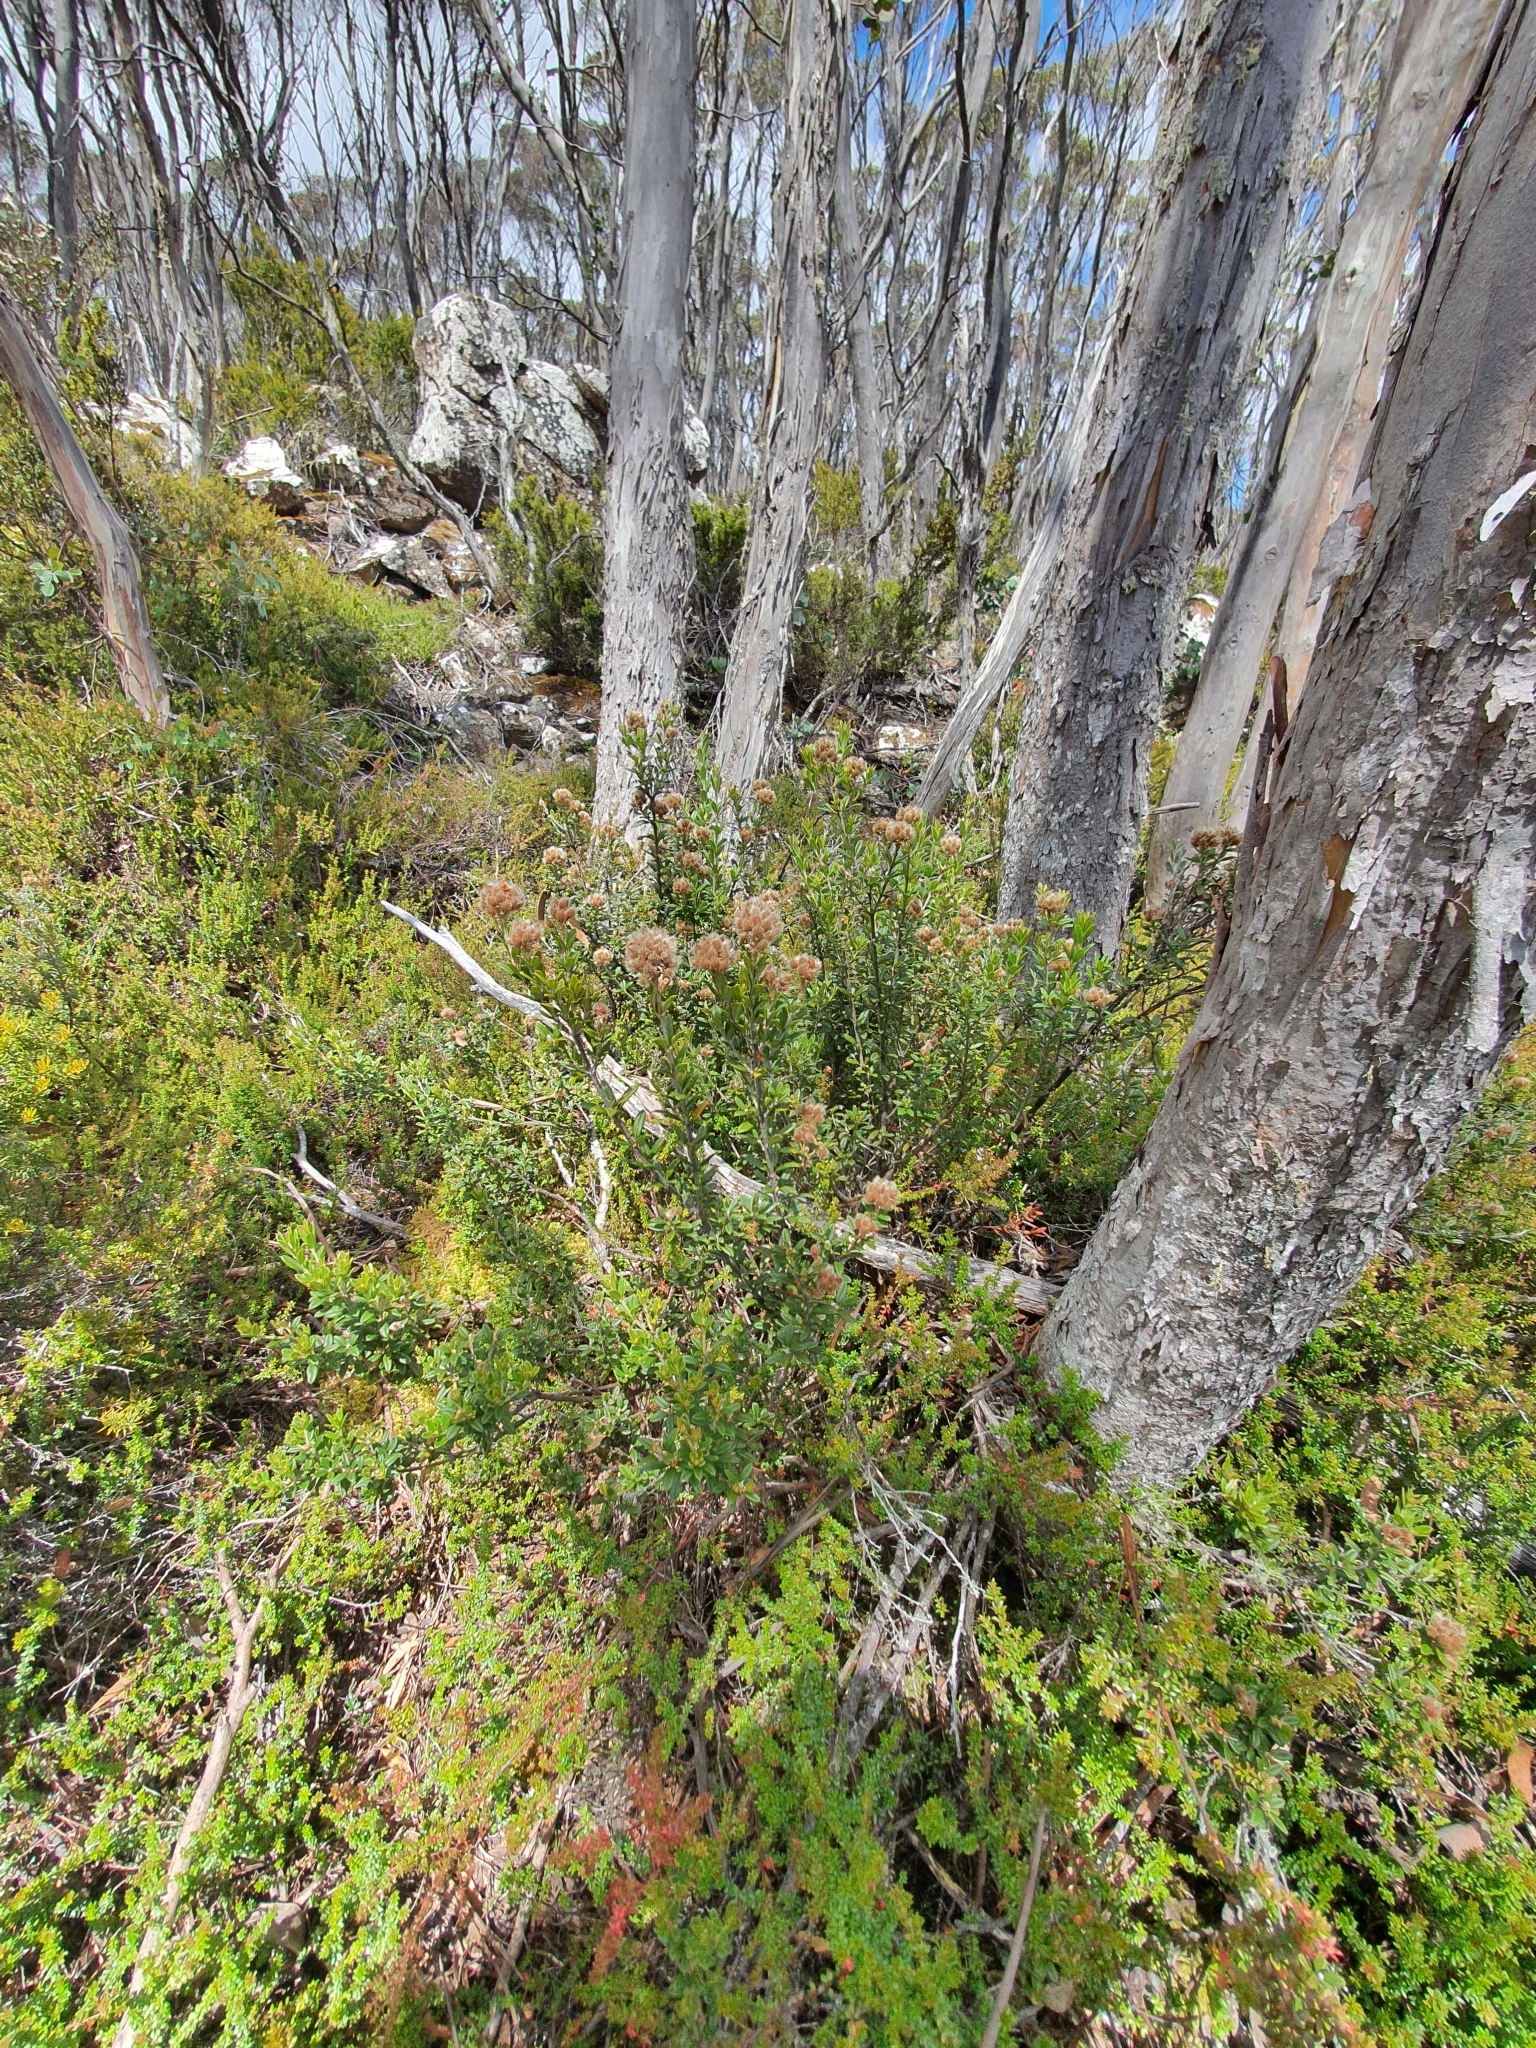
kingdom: Plantae
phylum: Tracheophyta
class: Magnoliopsida
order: Fabales
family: Fabaceae
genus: Oxylobium
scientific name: Oxylobium ellipticum
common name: Golden shaggy-pea
